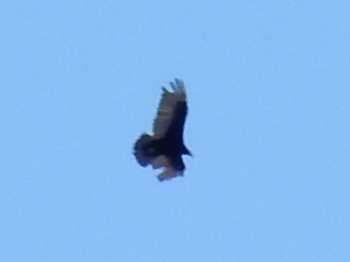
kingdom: Animalia
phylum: Chordata
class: Aves
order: Accipitriformes
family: Cathartidae
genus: Cathartes
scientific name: Cathartes aura
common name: Turkey vulture
